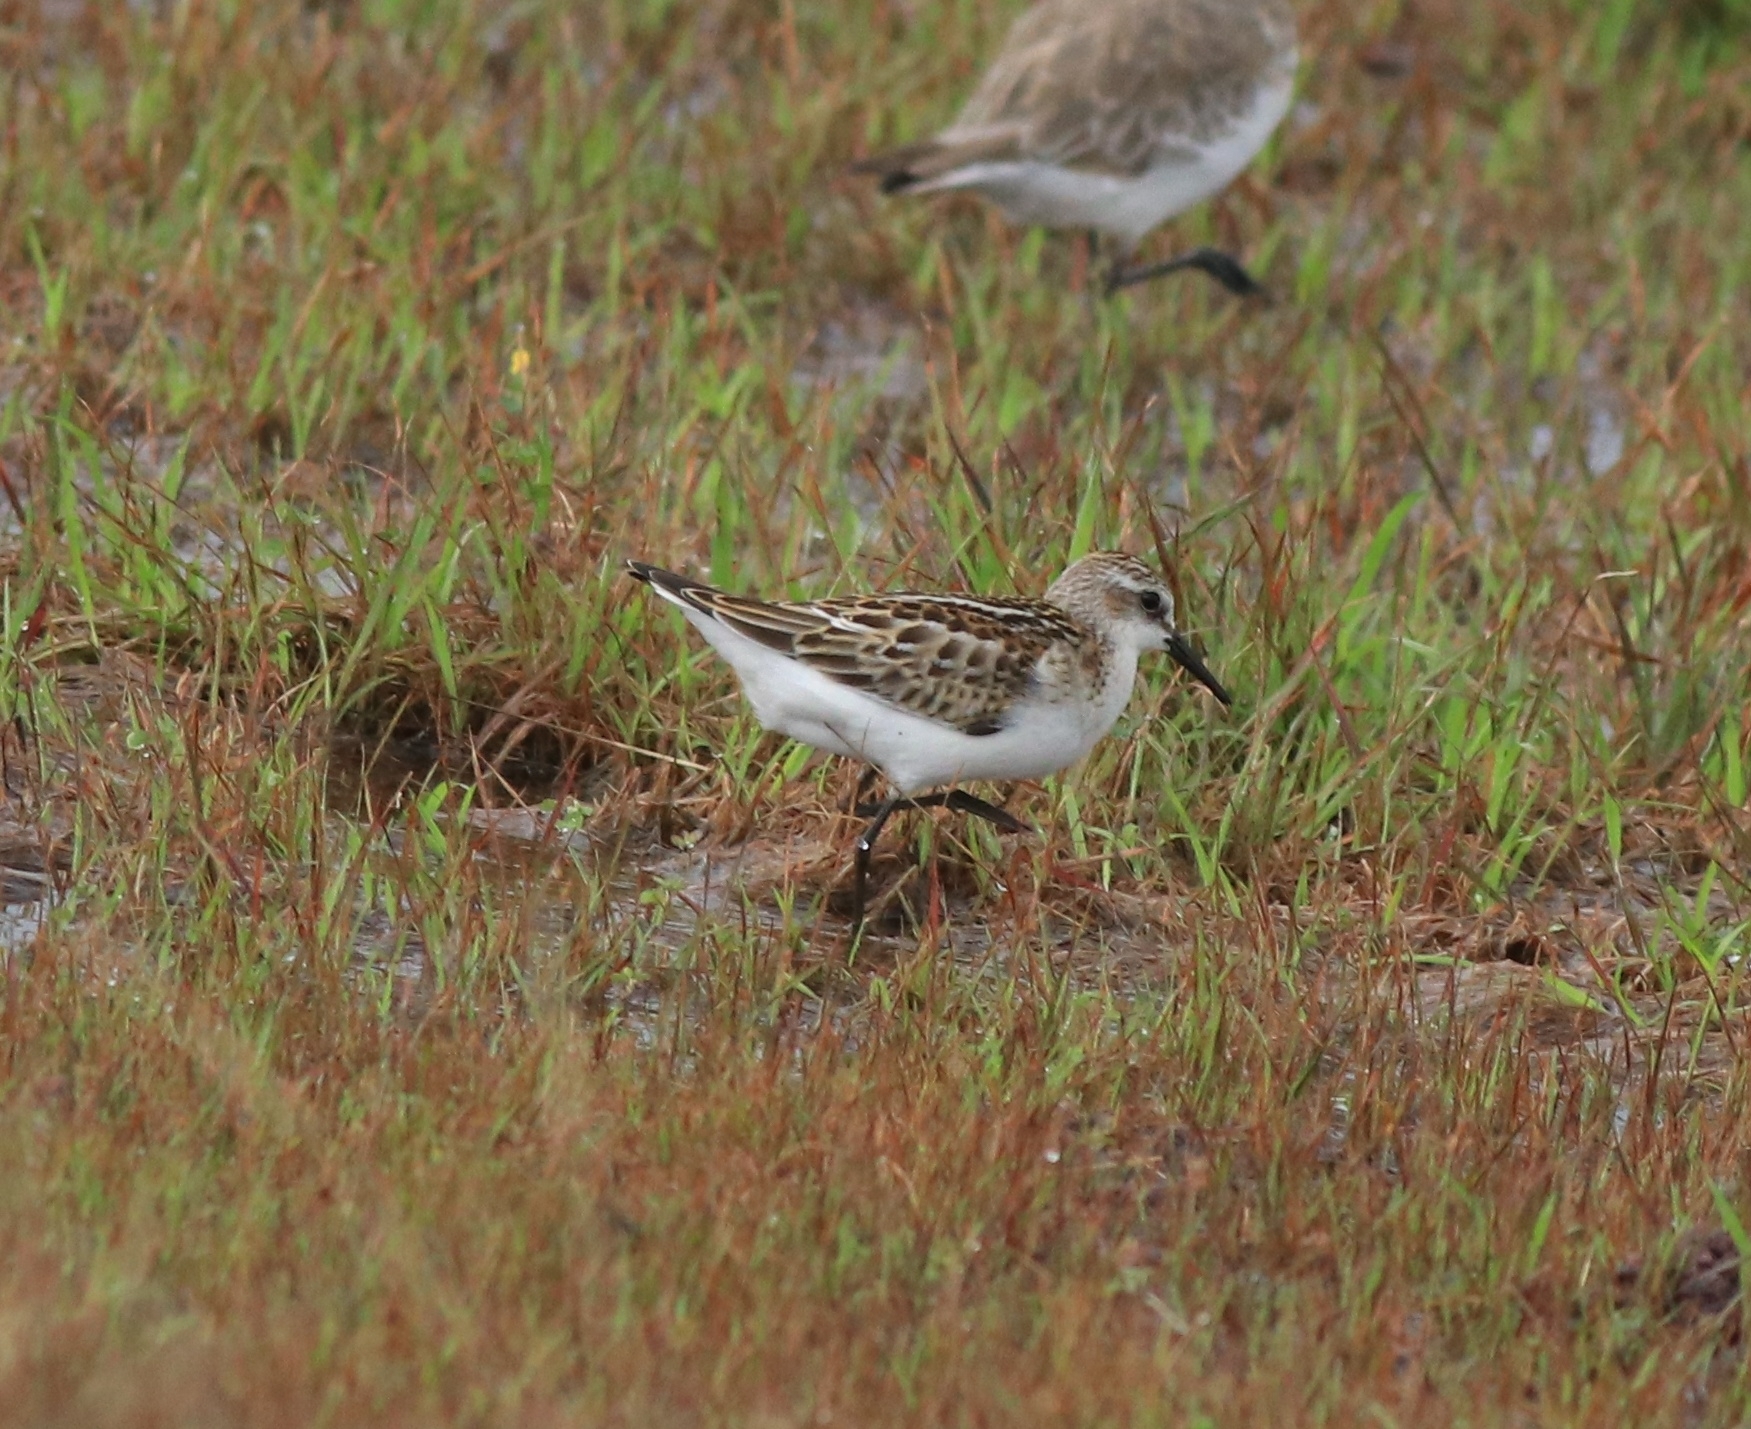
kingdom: Animalia
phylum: Chordata
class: Aves
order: Charadriiformes
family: Scolopacidae
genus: Calidris
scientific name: Calidris minuta
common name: Little stint
